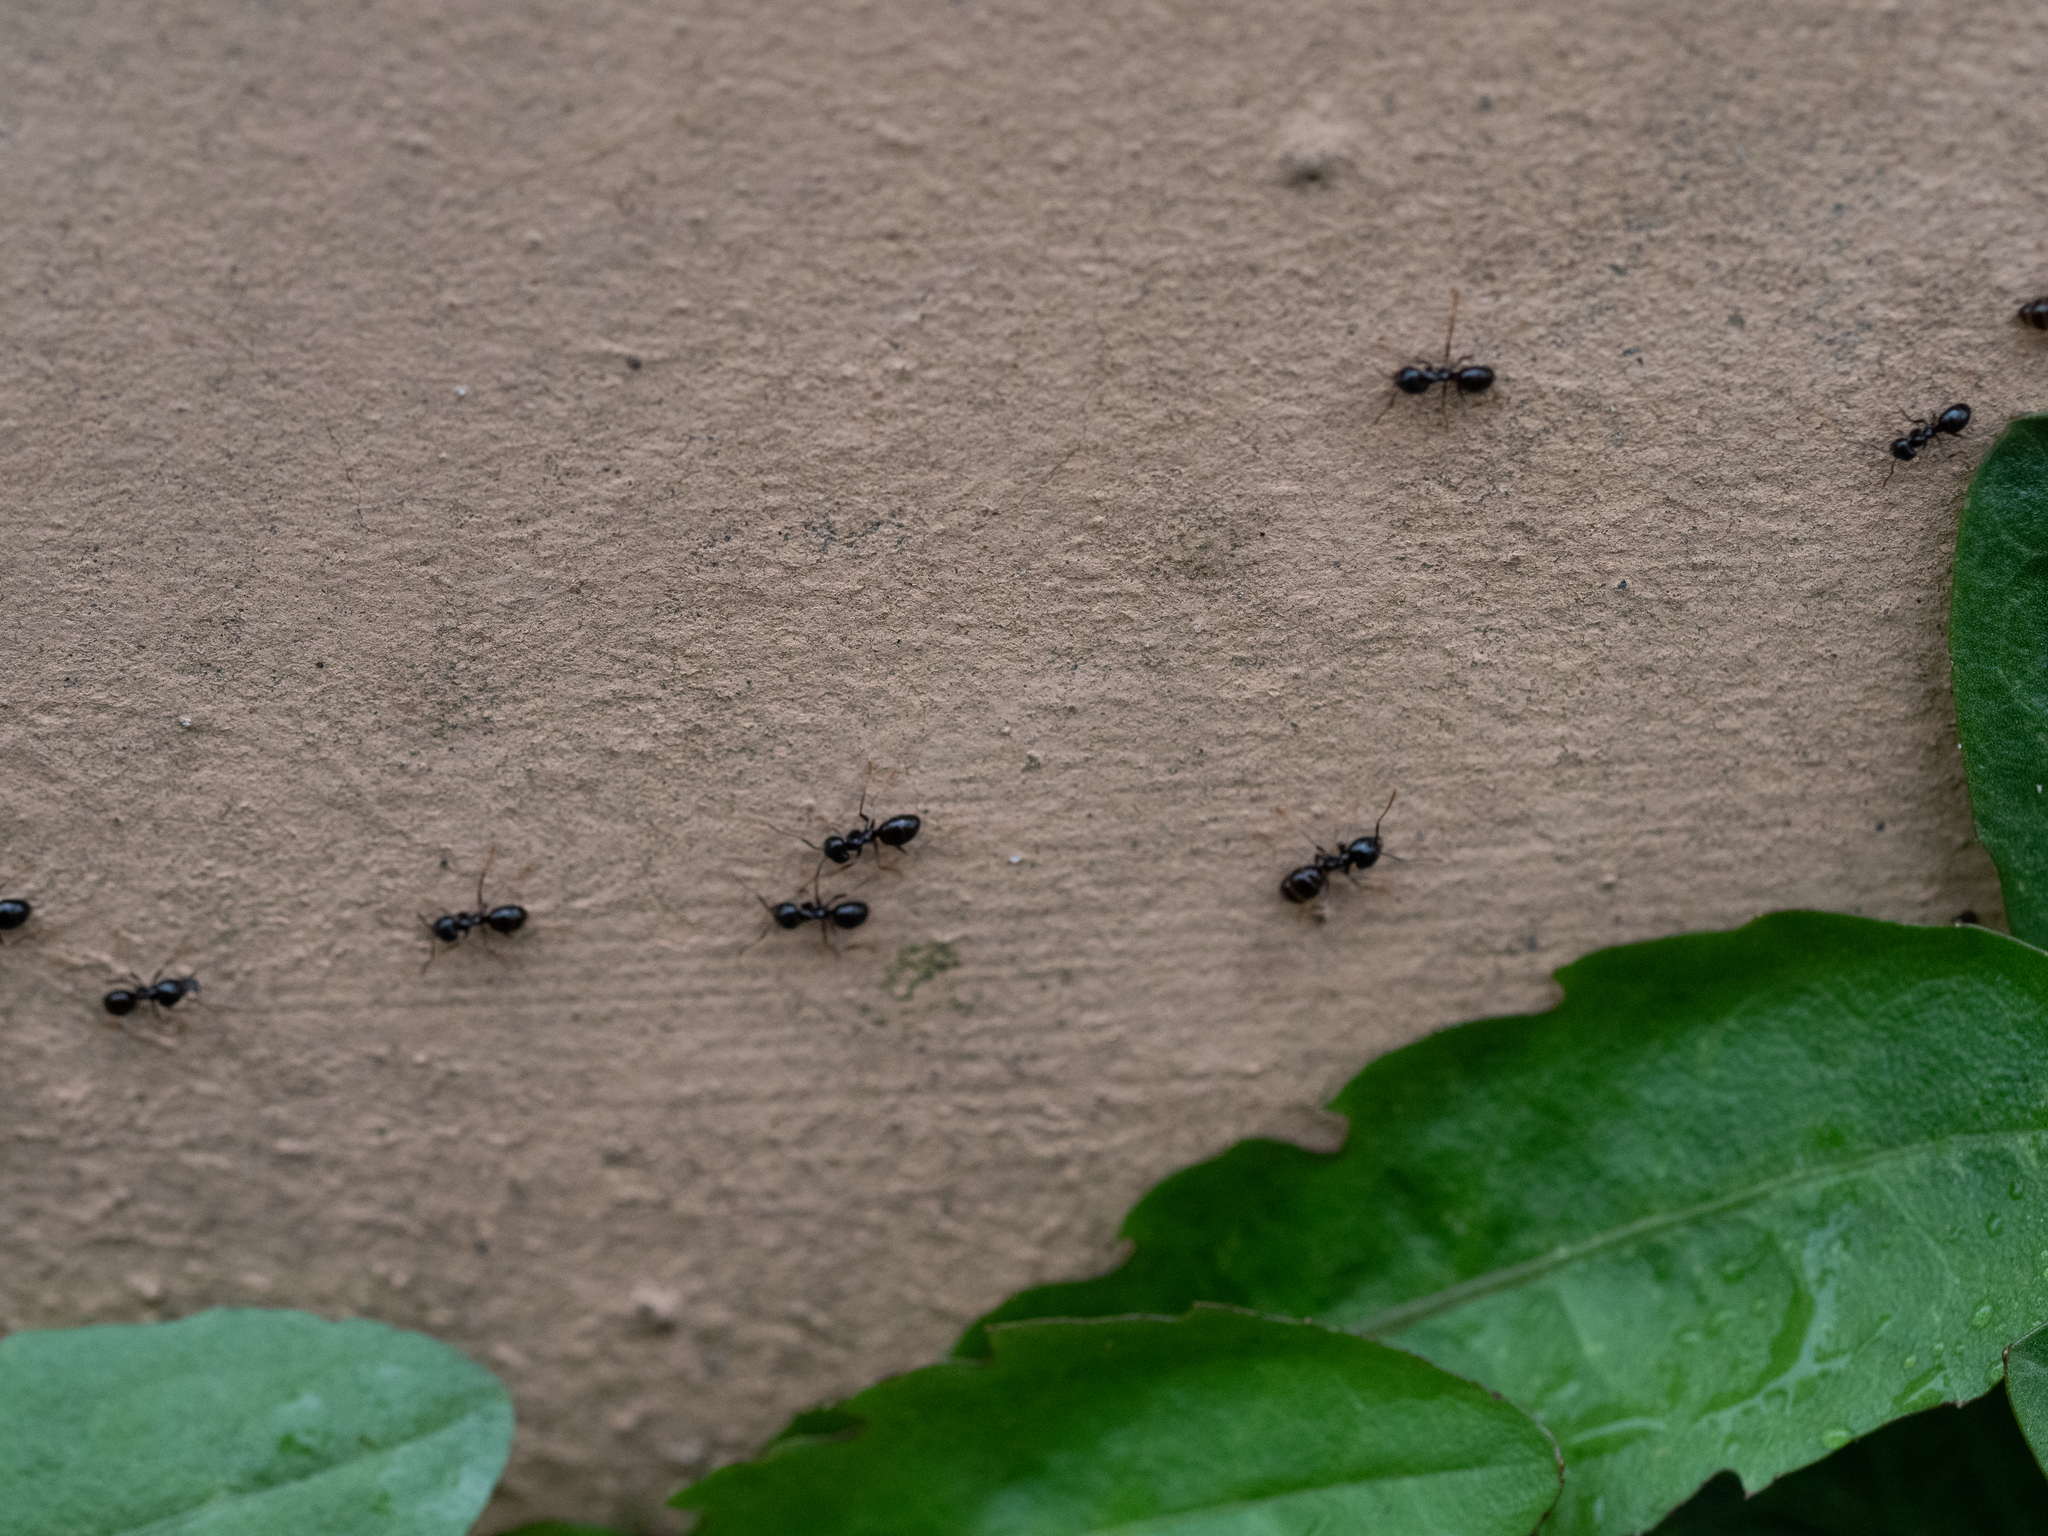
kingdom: Animalia
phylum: Arthropoda
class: Insecta
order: Hymenoptera
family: Formicidae
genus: Lasius
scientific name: Lasius fuliginosus
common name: Jet ant
